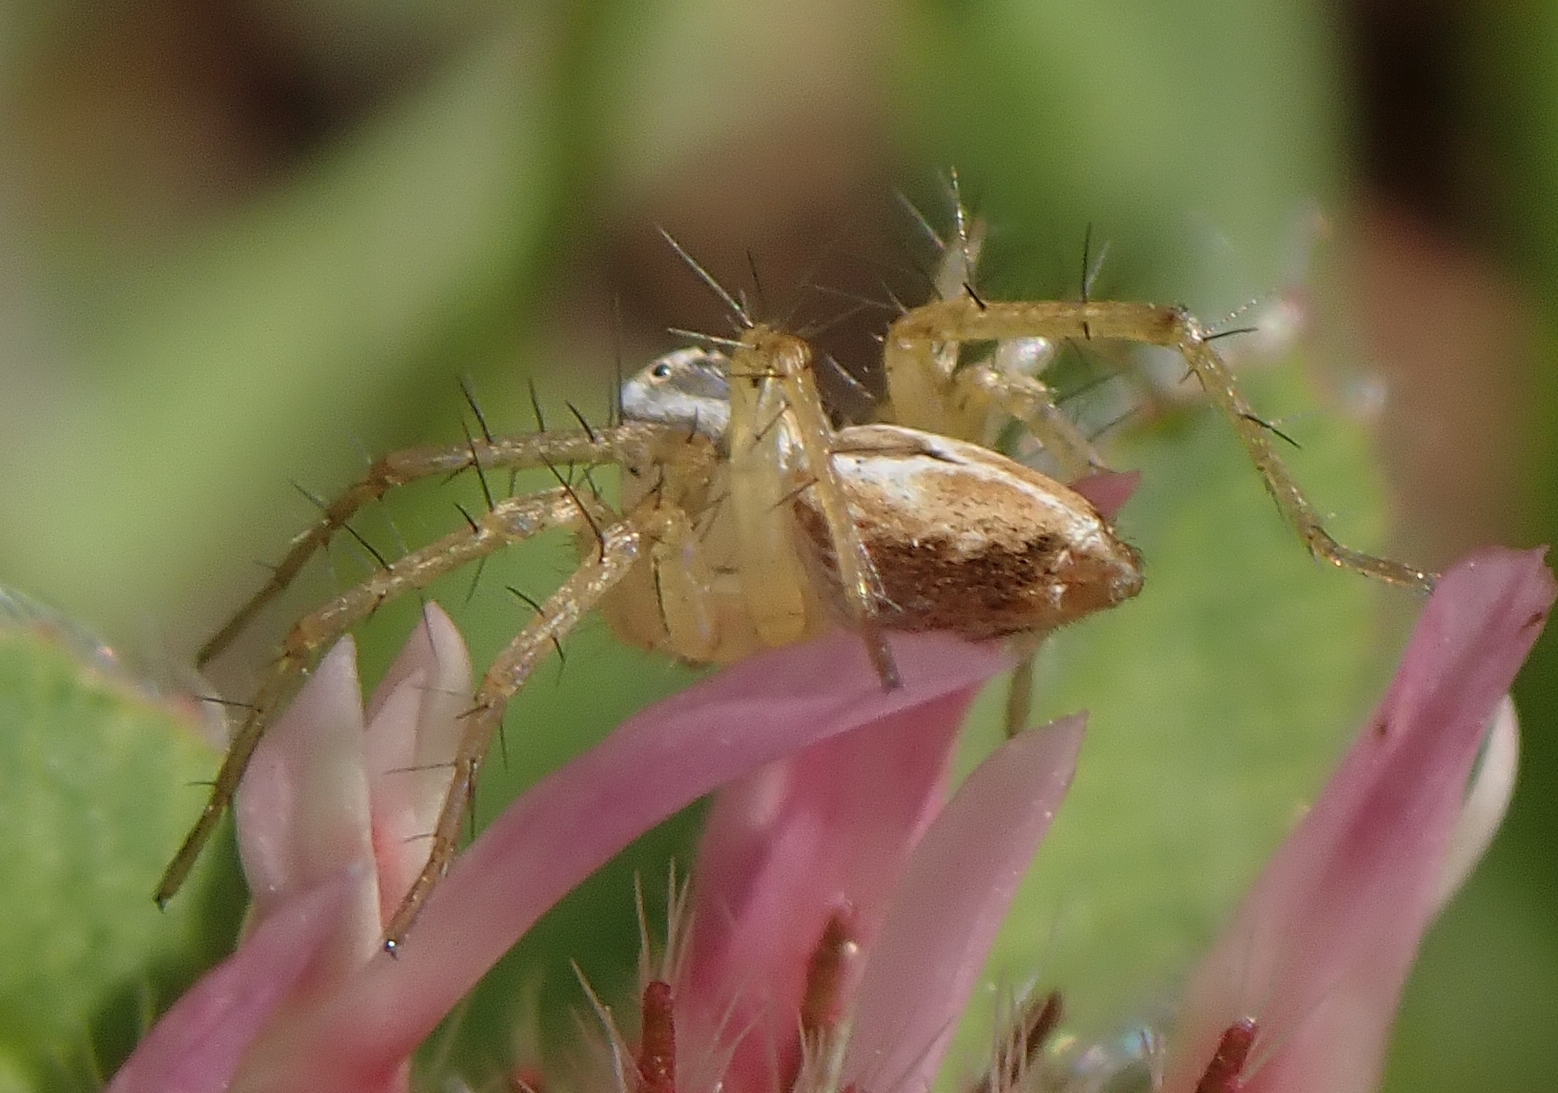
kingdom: Animalia
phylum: Arthropoda
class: Arachnida
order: Araneae
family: Oxyopidae
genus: Oxyopes
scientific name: Oxyopes salticus
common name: Lynx spiders
